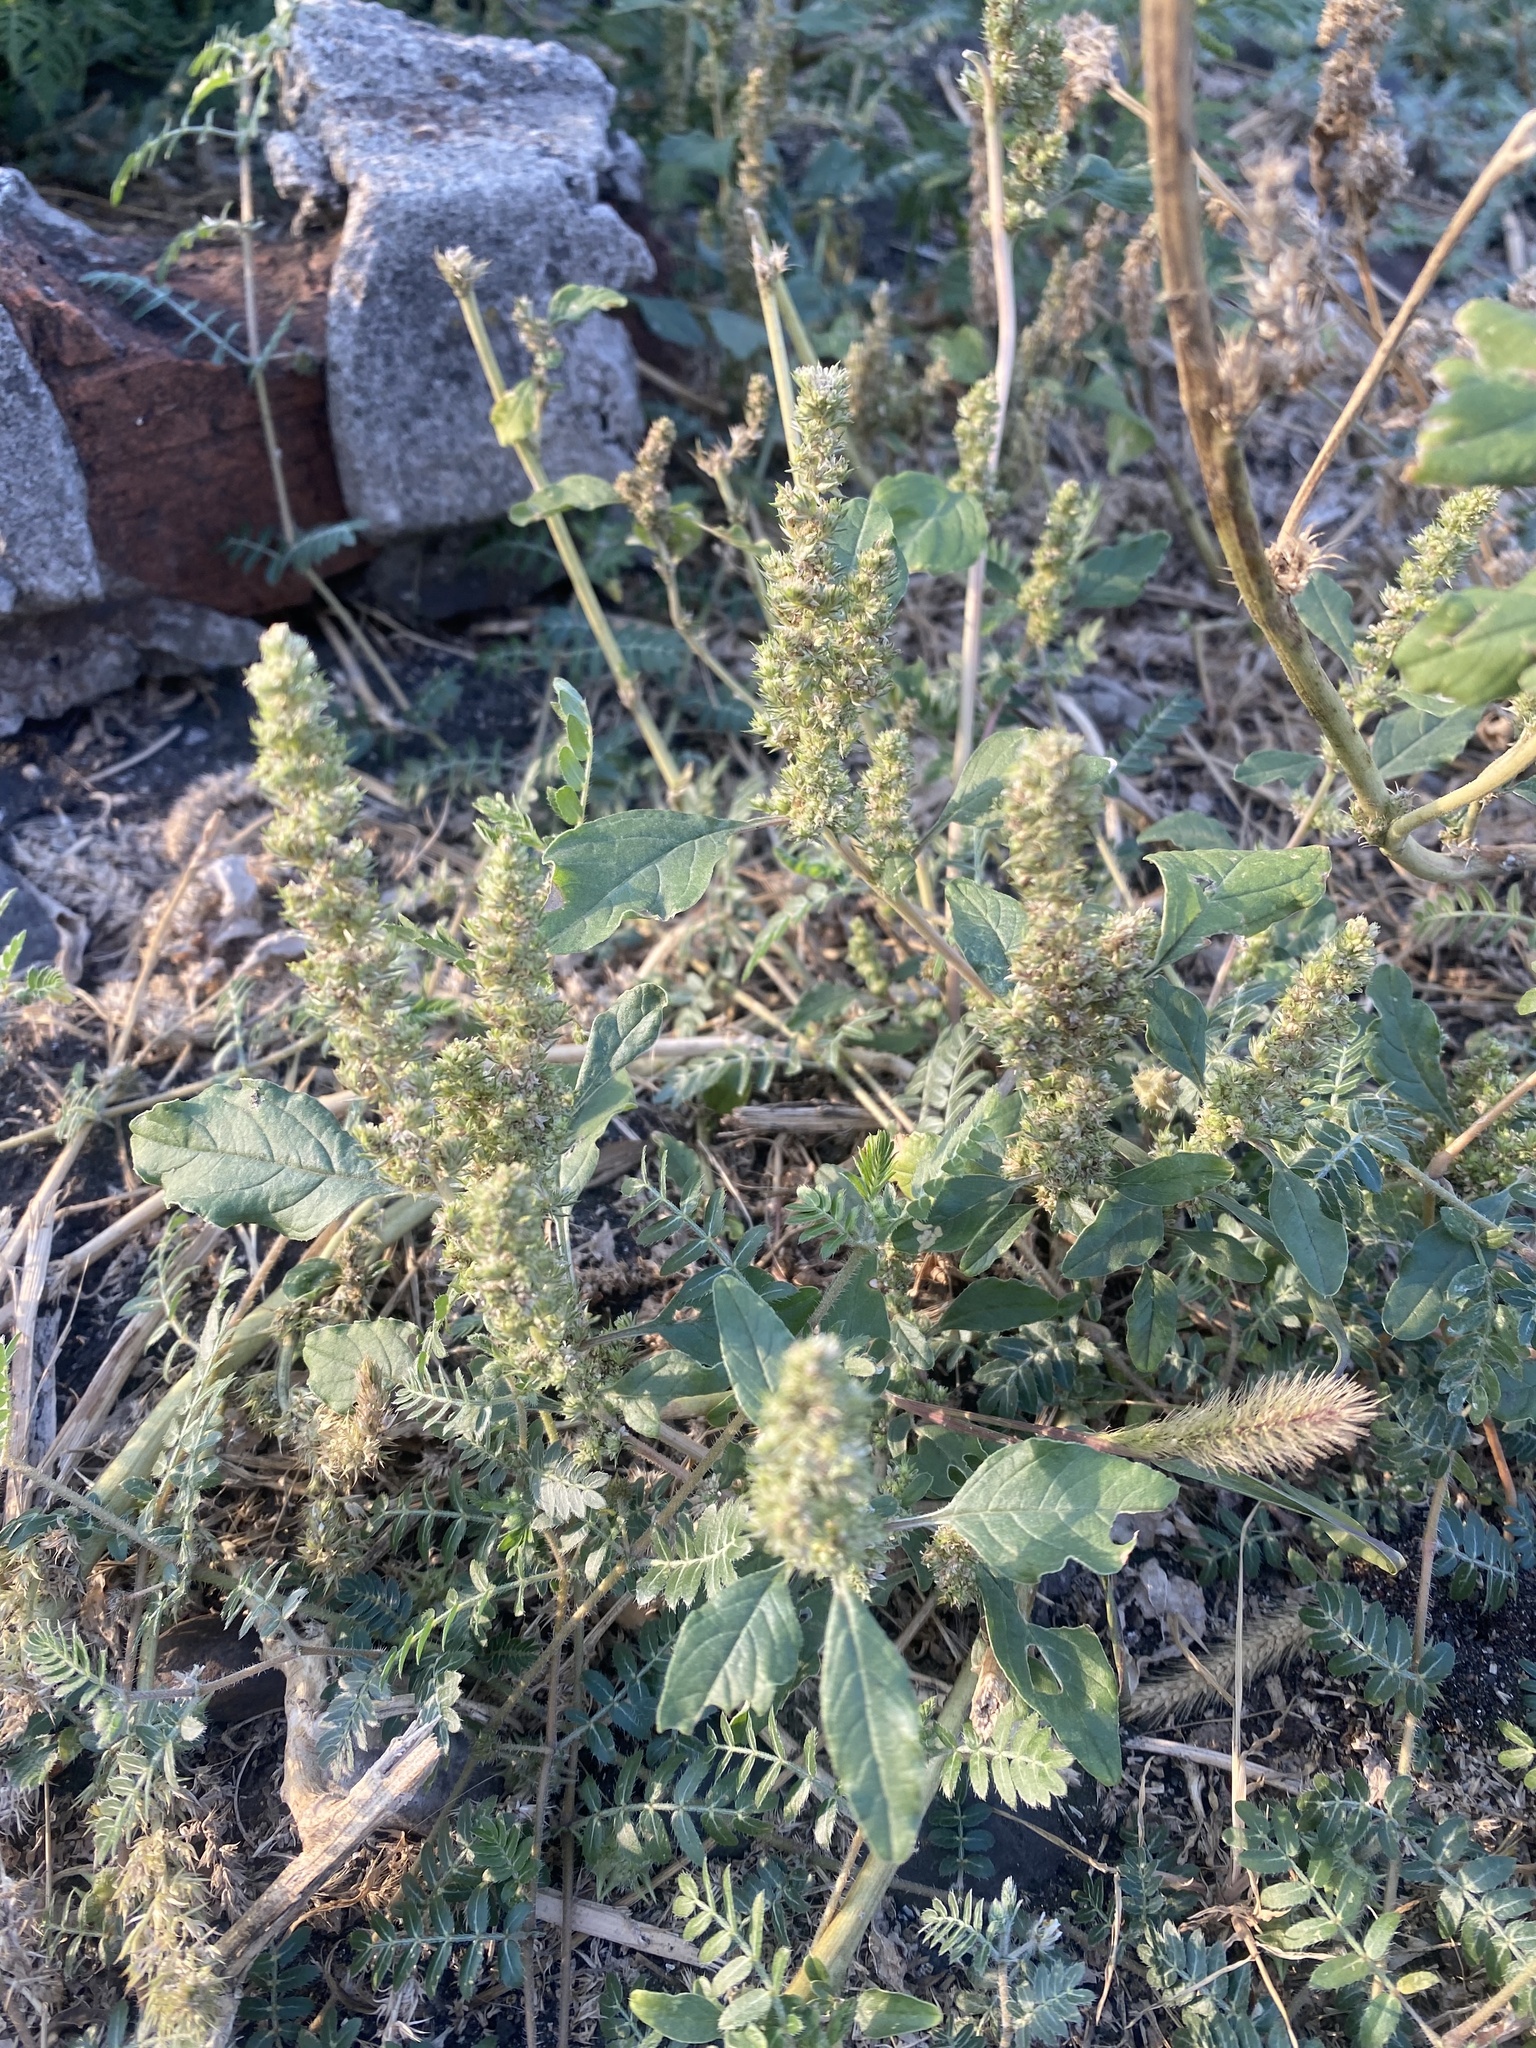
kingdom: Plantae
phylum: Tracheophyta
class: Magnoliopsida
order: Caryophyllales
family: Amaranthaceae
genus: Amaranthus
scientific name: Amaranthus retroflexus
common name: Redroot amaranth
